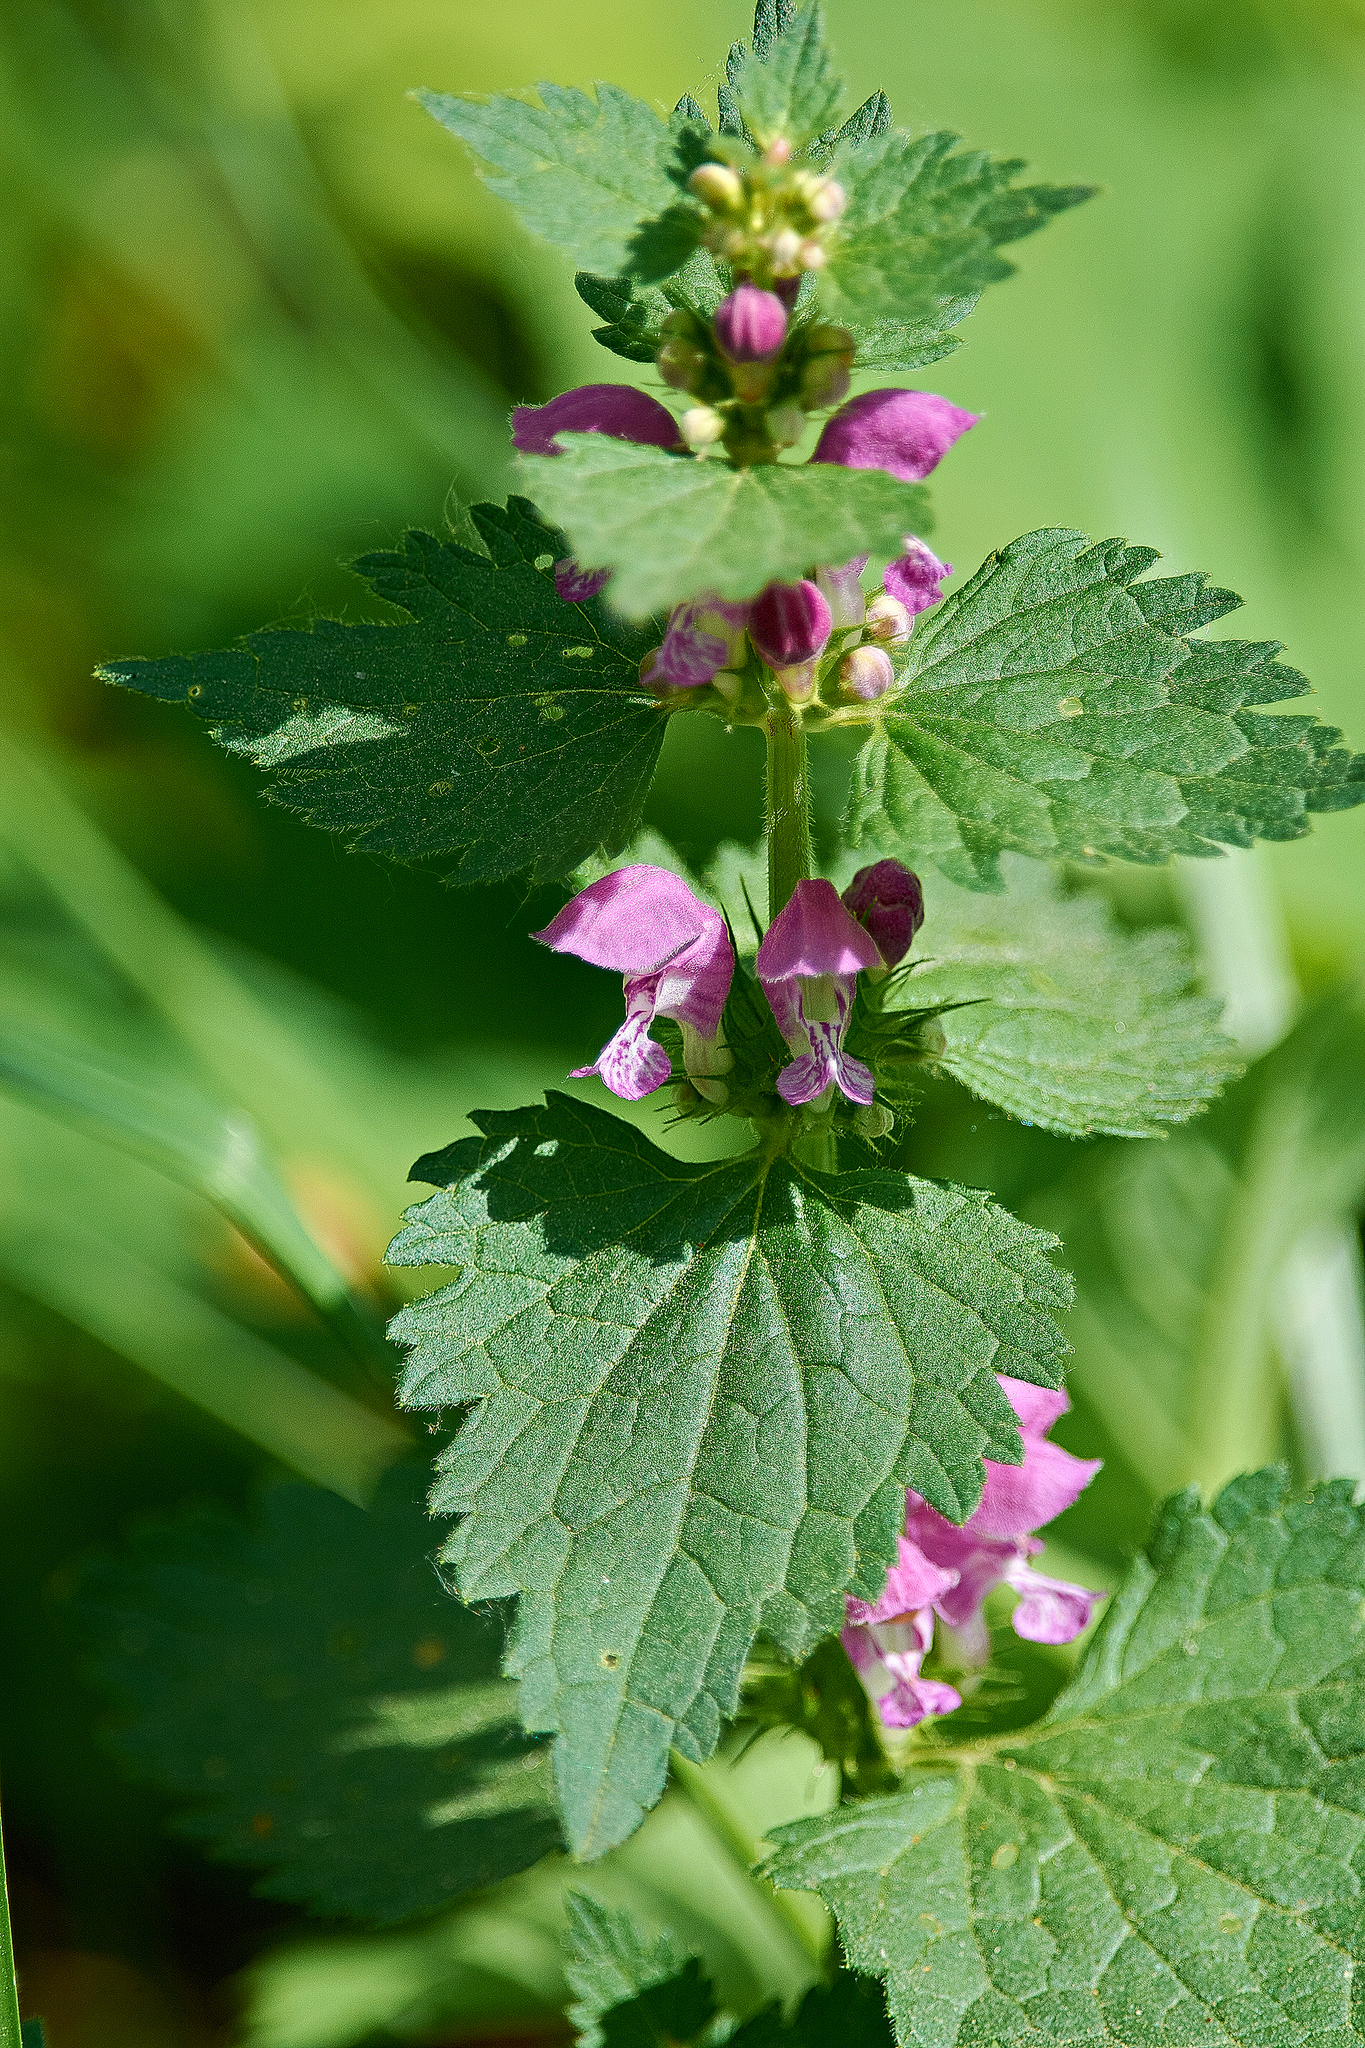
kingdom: Plantae
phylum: Tracheophyta
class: Magnoliopsida
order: Lamiales
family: Lamiaceae
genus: Lamium
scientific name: Lamium maculatum
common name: Spotted dead-nettle
